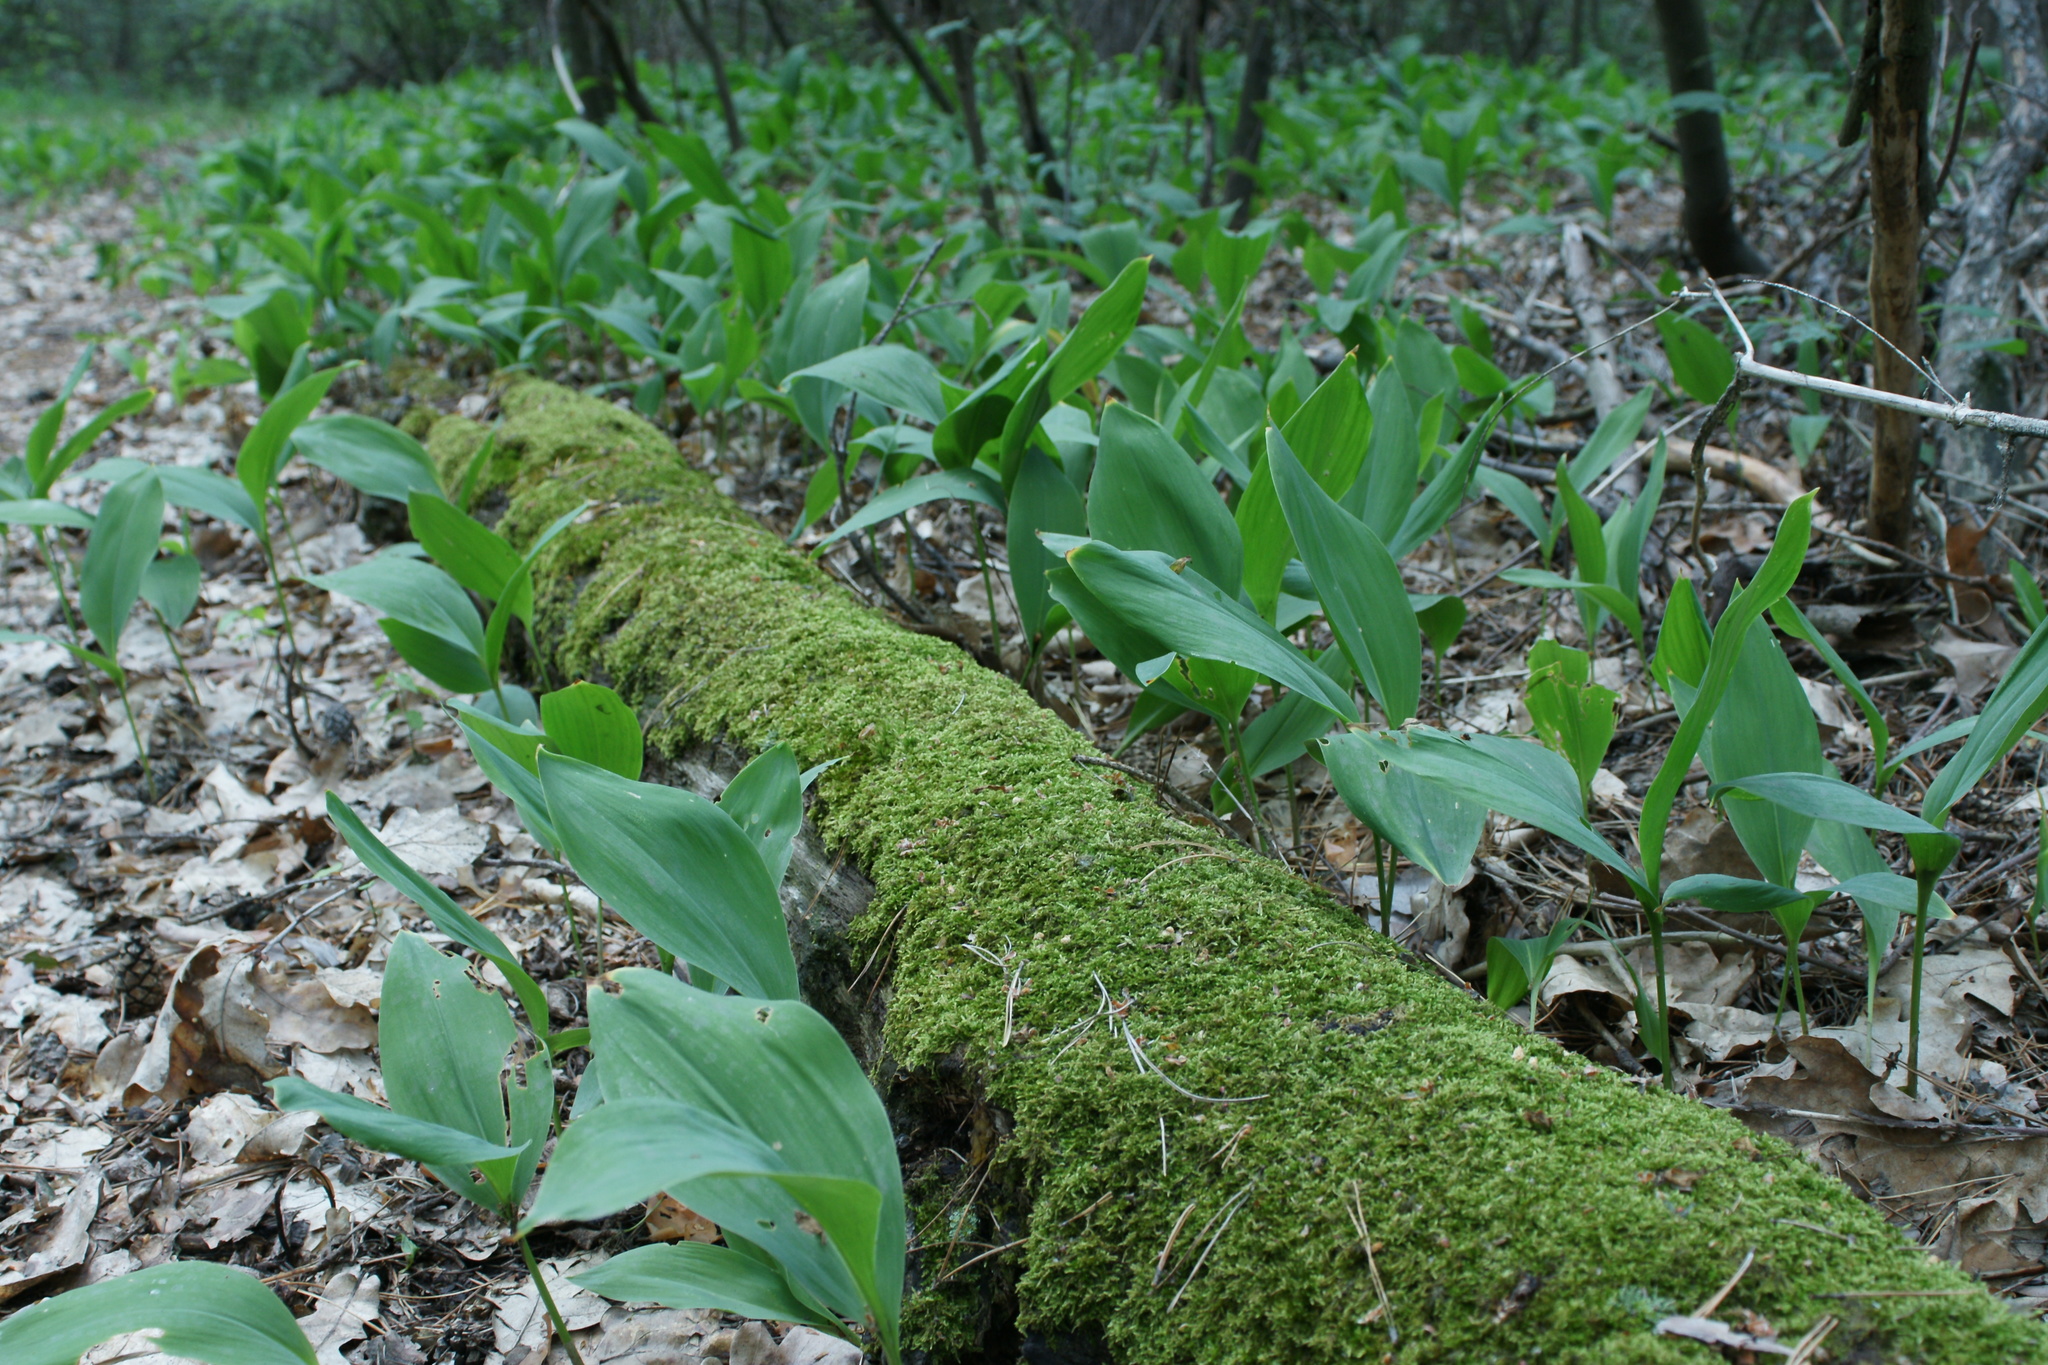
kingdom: Plantae
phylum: Tracheophyta
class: Liliopsida
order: Asparagales
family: Asparagaceae
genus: Convallaria
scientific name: Convallaria majalis
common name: Lily-of-the-valley
